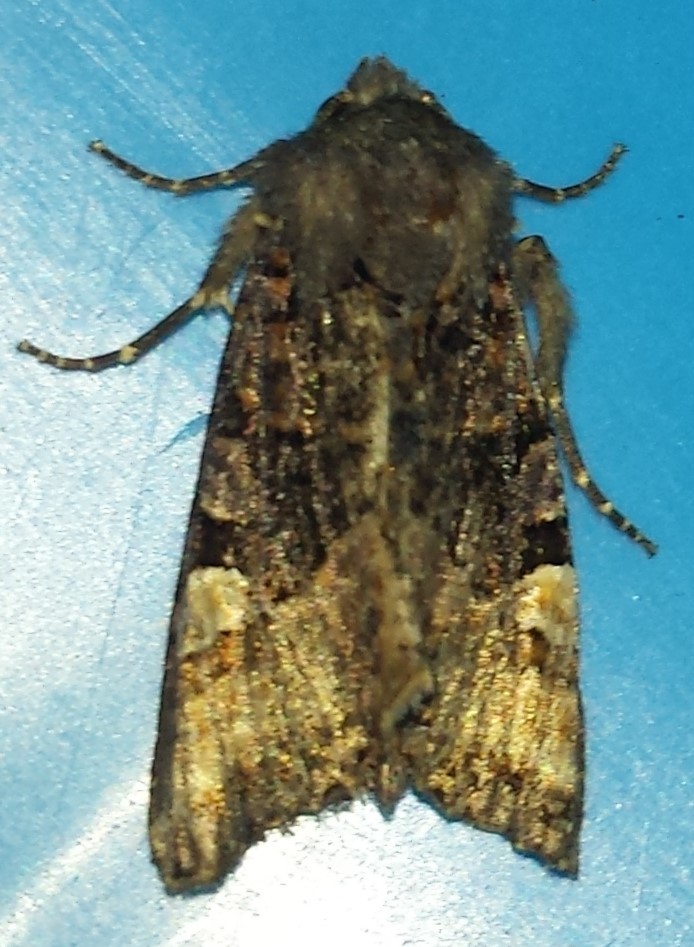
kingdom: Animalia
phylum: Arthropoda
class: Insecta
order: Lepidoptera
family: Noctuidae
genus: Euplexia
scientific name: Euplexia benesimilis
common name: American angle shades
